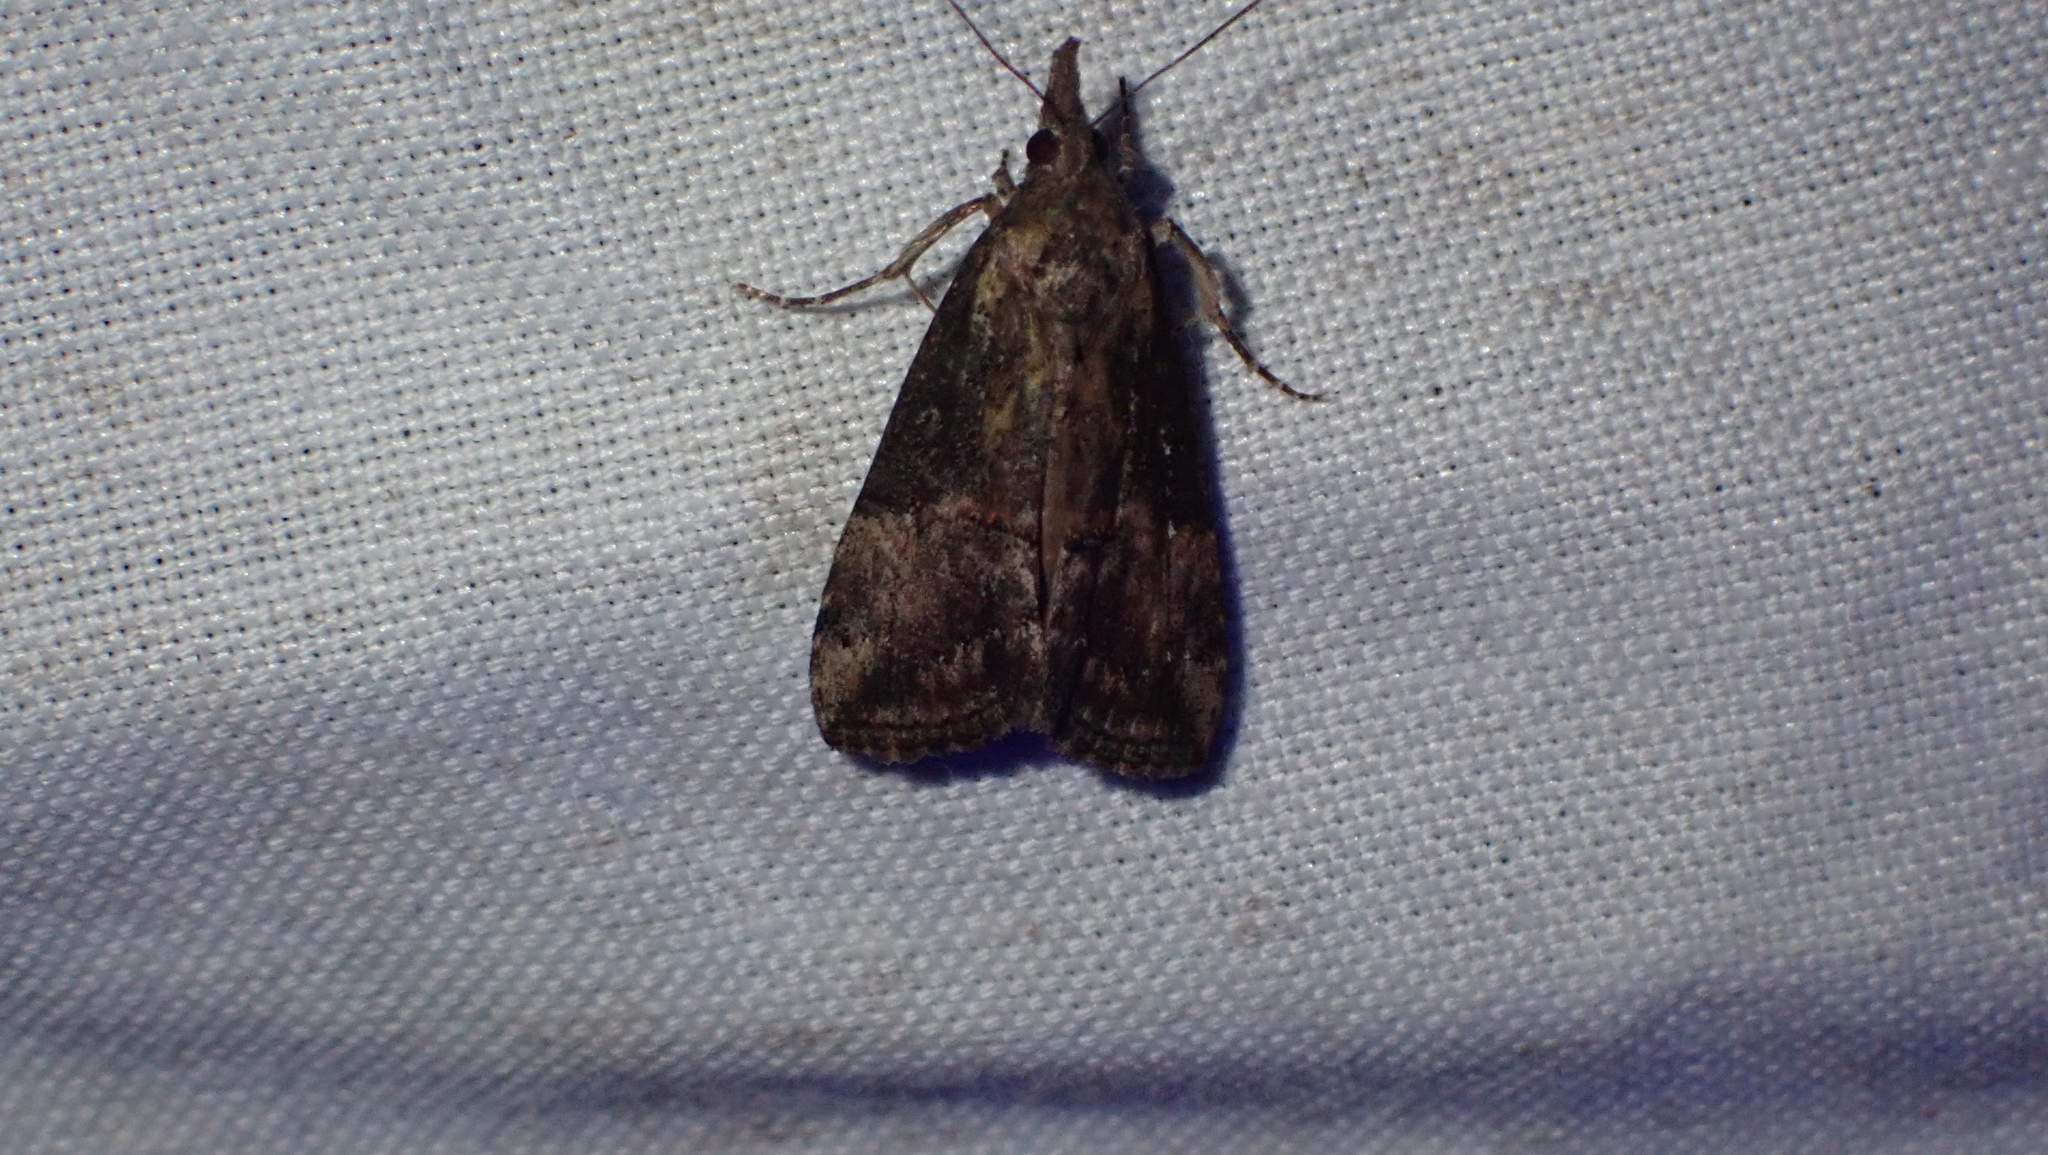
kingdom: Animalia
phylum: Arthropoda
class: Insecta
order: Lepidoptera
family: Erebidae
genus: Hypena
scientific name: Hypena scabra
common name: Green cloverworm
